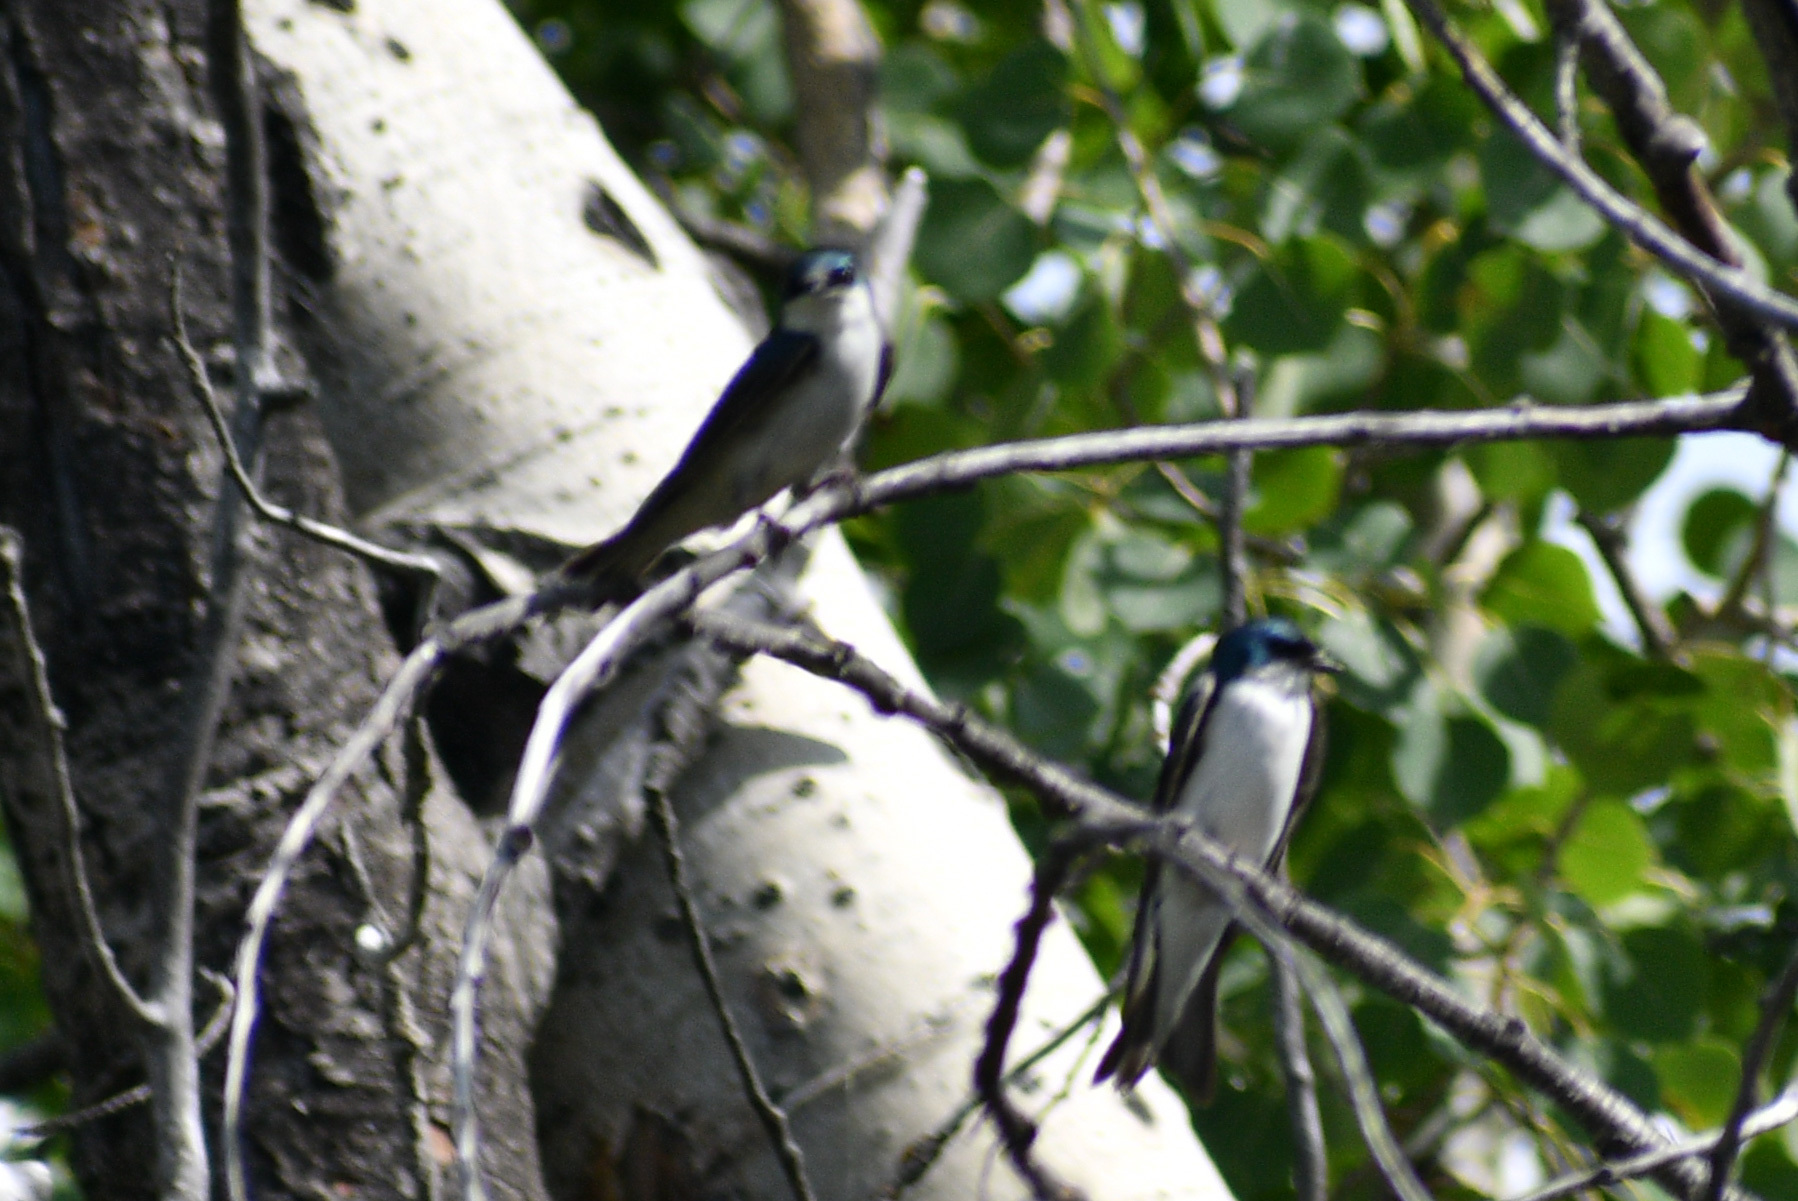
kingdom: Animalia
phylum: Chordata
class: Aves
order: Passeriformes
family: Hirundinidae
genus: Tachycineta
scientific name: Tachycineta bicolor
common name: Tree swallow
